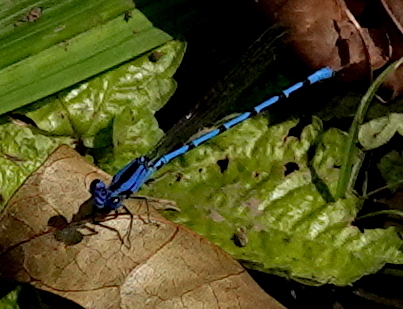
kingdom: Animalia
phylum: Arthropoda
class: Insecta
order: Odonata
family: Coenagrionidae
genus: Argia
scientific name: Argia elongata
